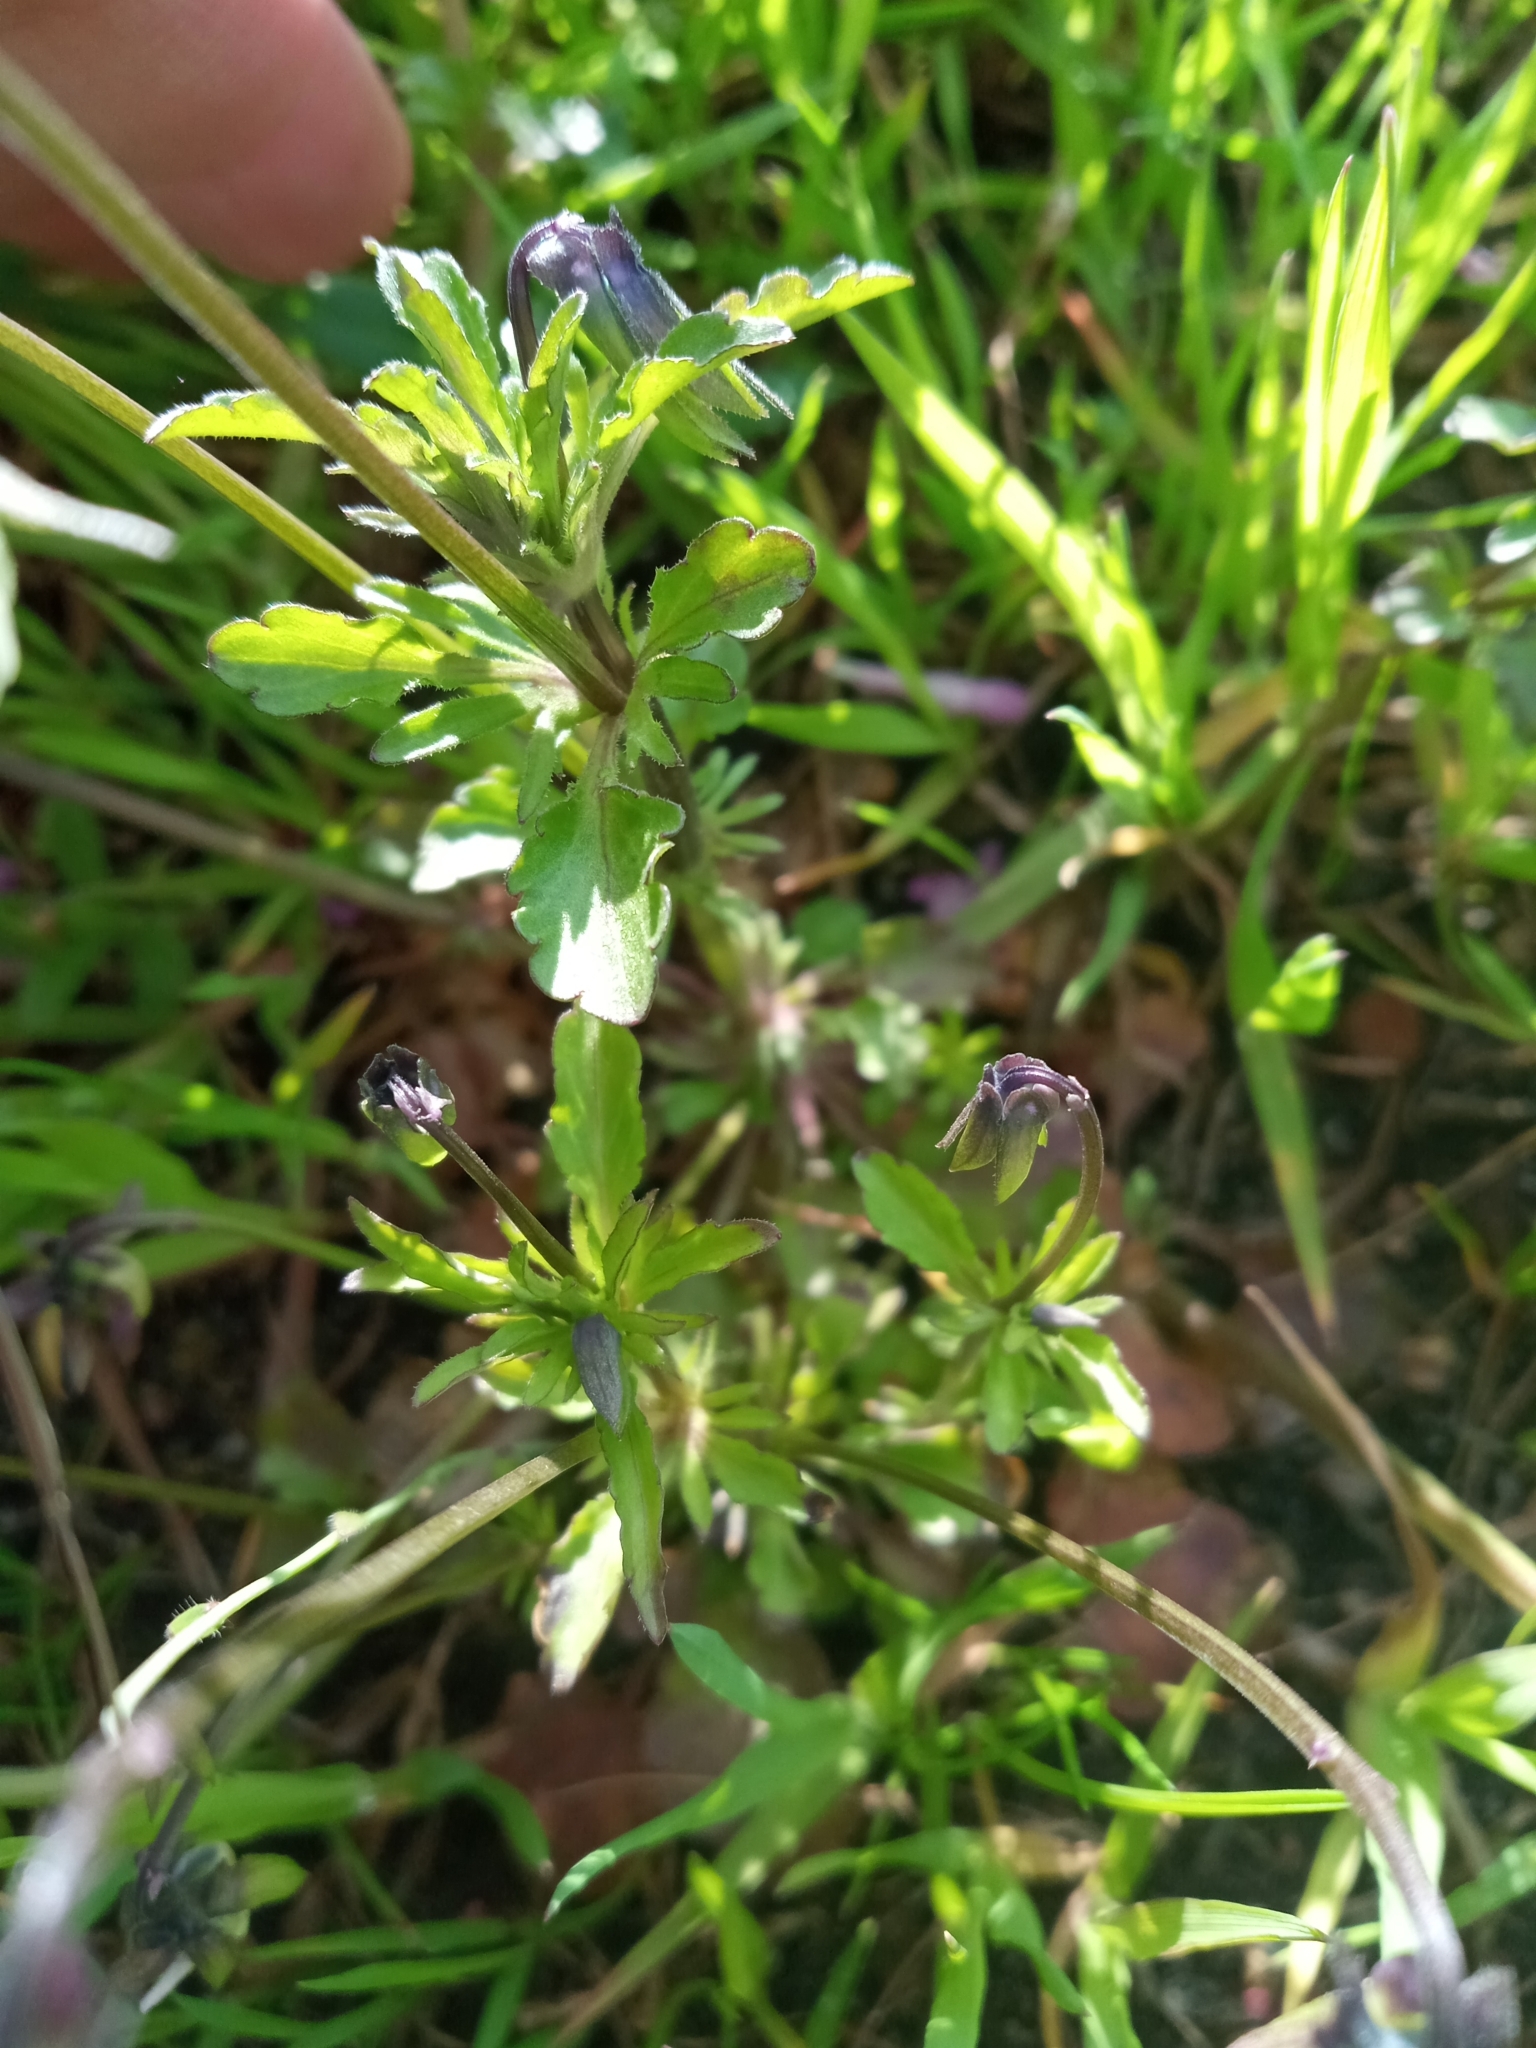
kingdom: Plantae
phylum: Tracheophyta
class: Magnoliopsida
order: Malpighiales
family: Violaceae
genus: Viola
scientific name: Viola arvensis
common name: Field pansy
